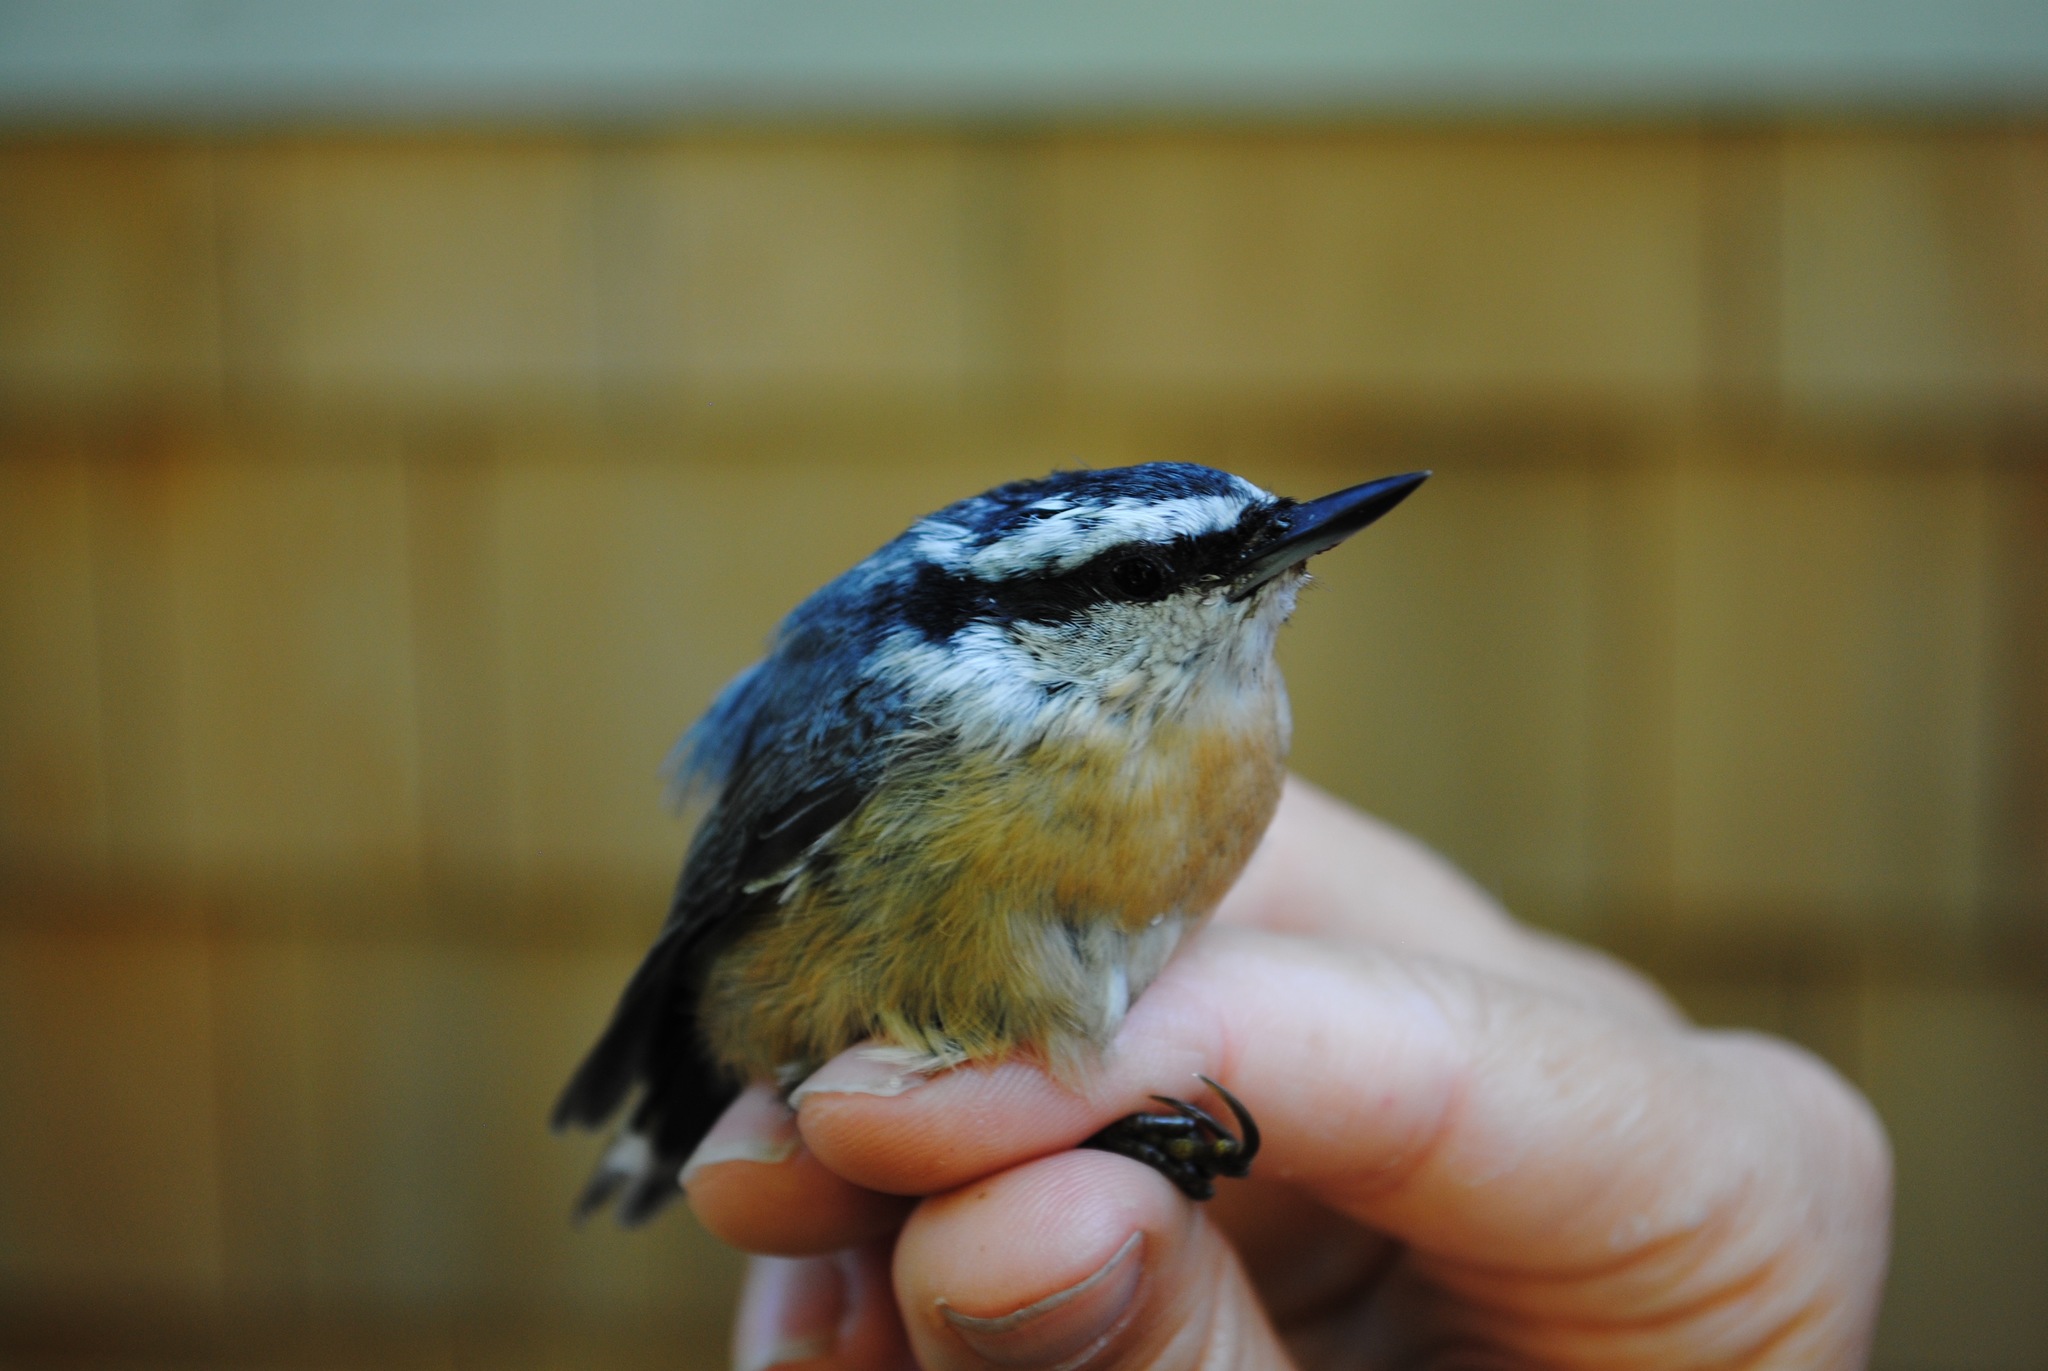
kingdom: Animalia
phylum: Chordata
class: Aves
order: Passeriformes
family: Sittidae
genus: Sitta
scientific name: Sitta canadensis
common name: Red-breasted nuthatch
